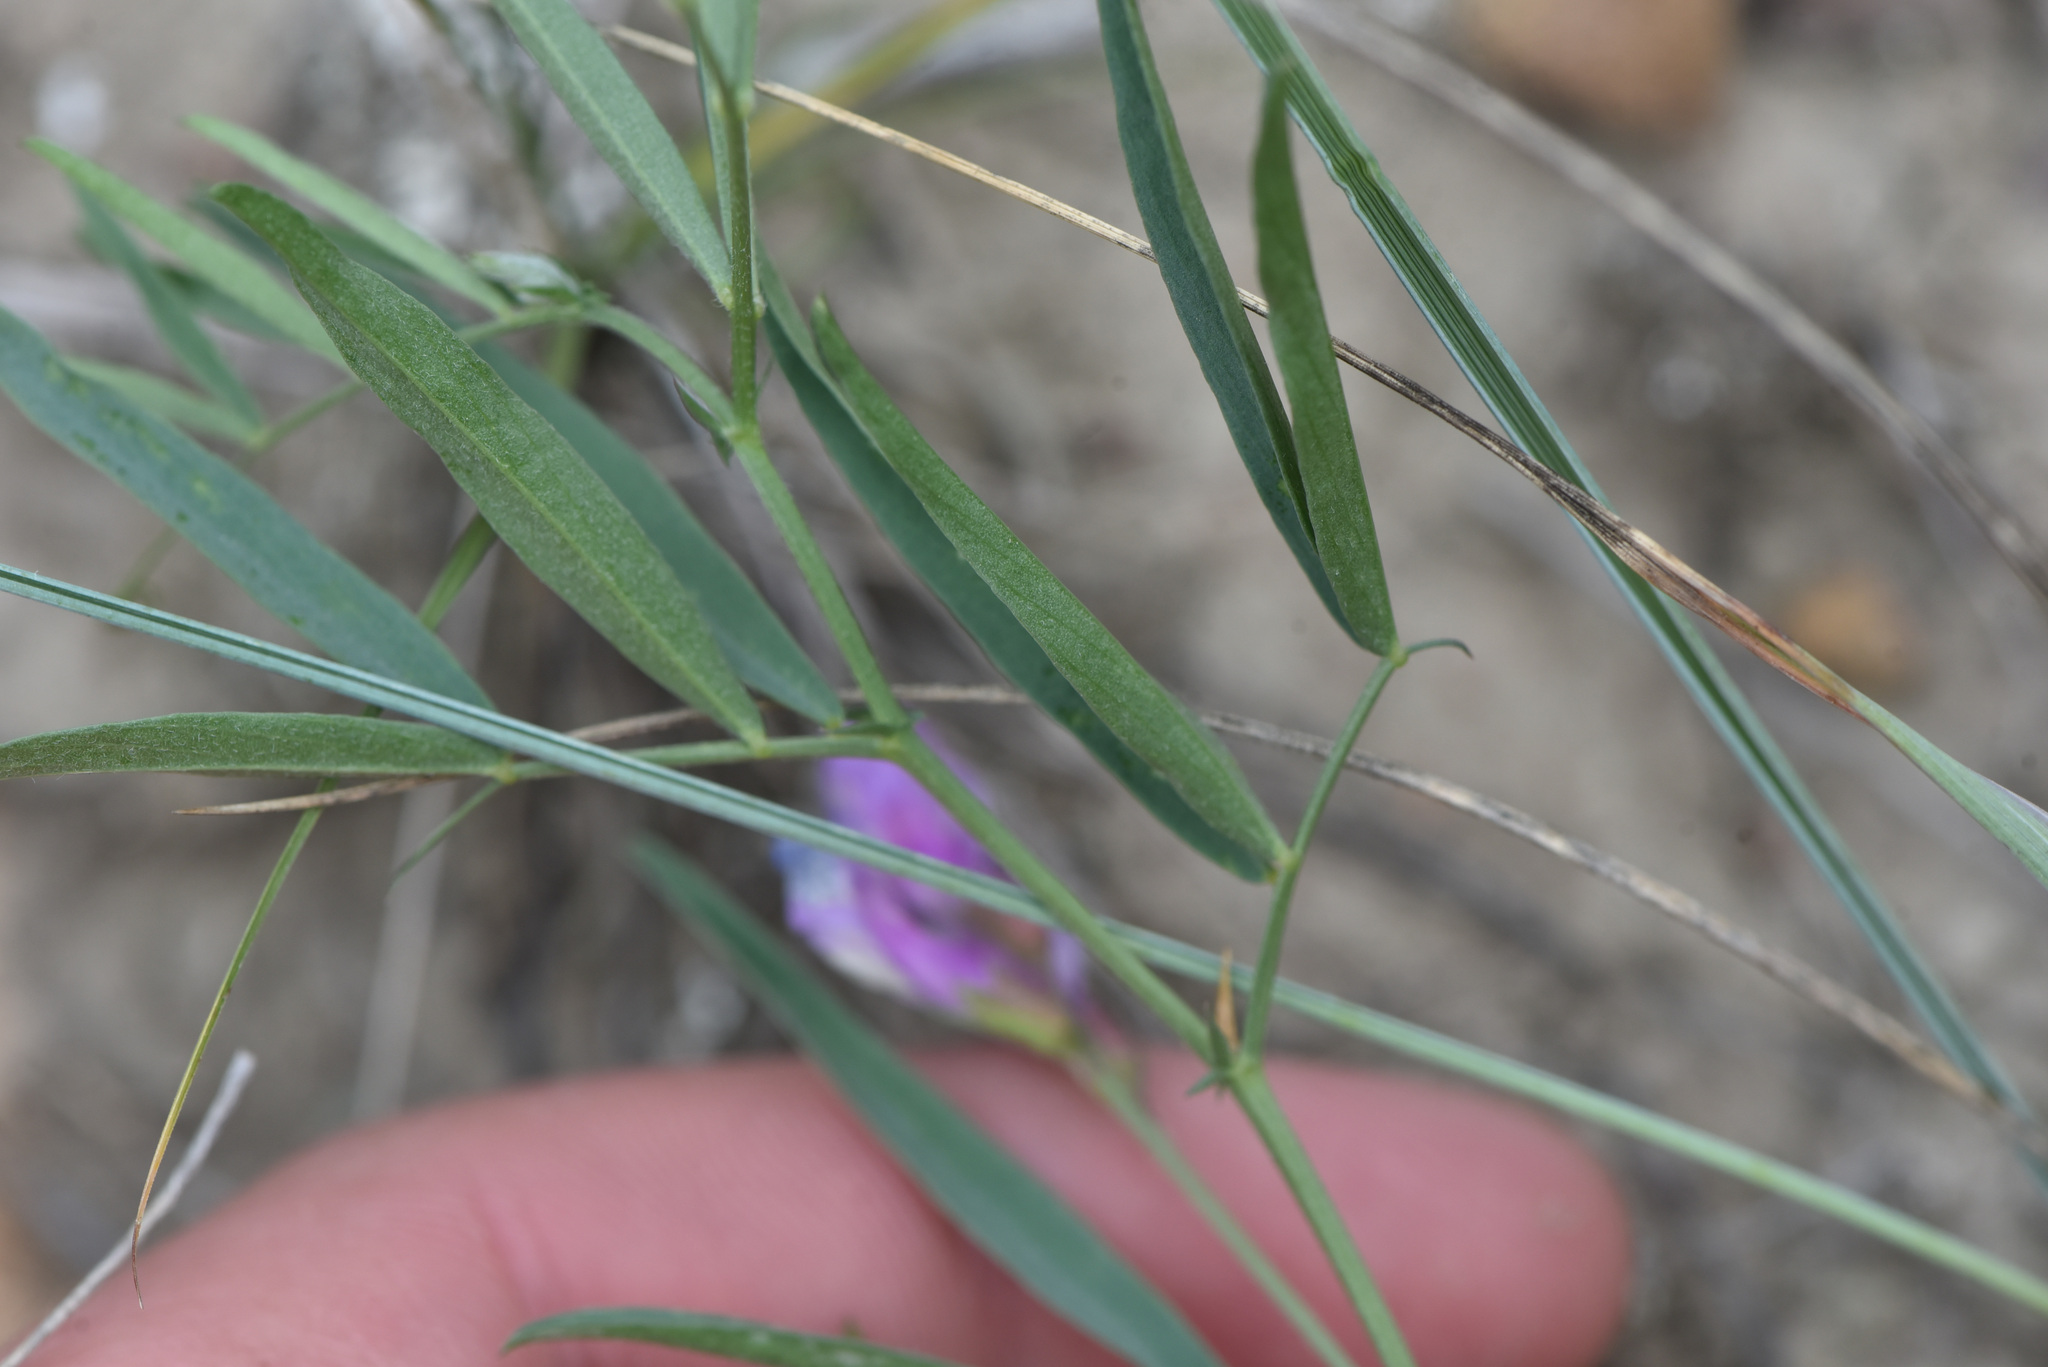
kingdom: Plantae
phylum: Tracheophyta
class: Magnoliopsida
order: Fabales
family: Fabaceae
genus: Vicia
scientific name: Vicia americana
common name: American vetch
